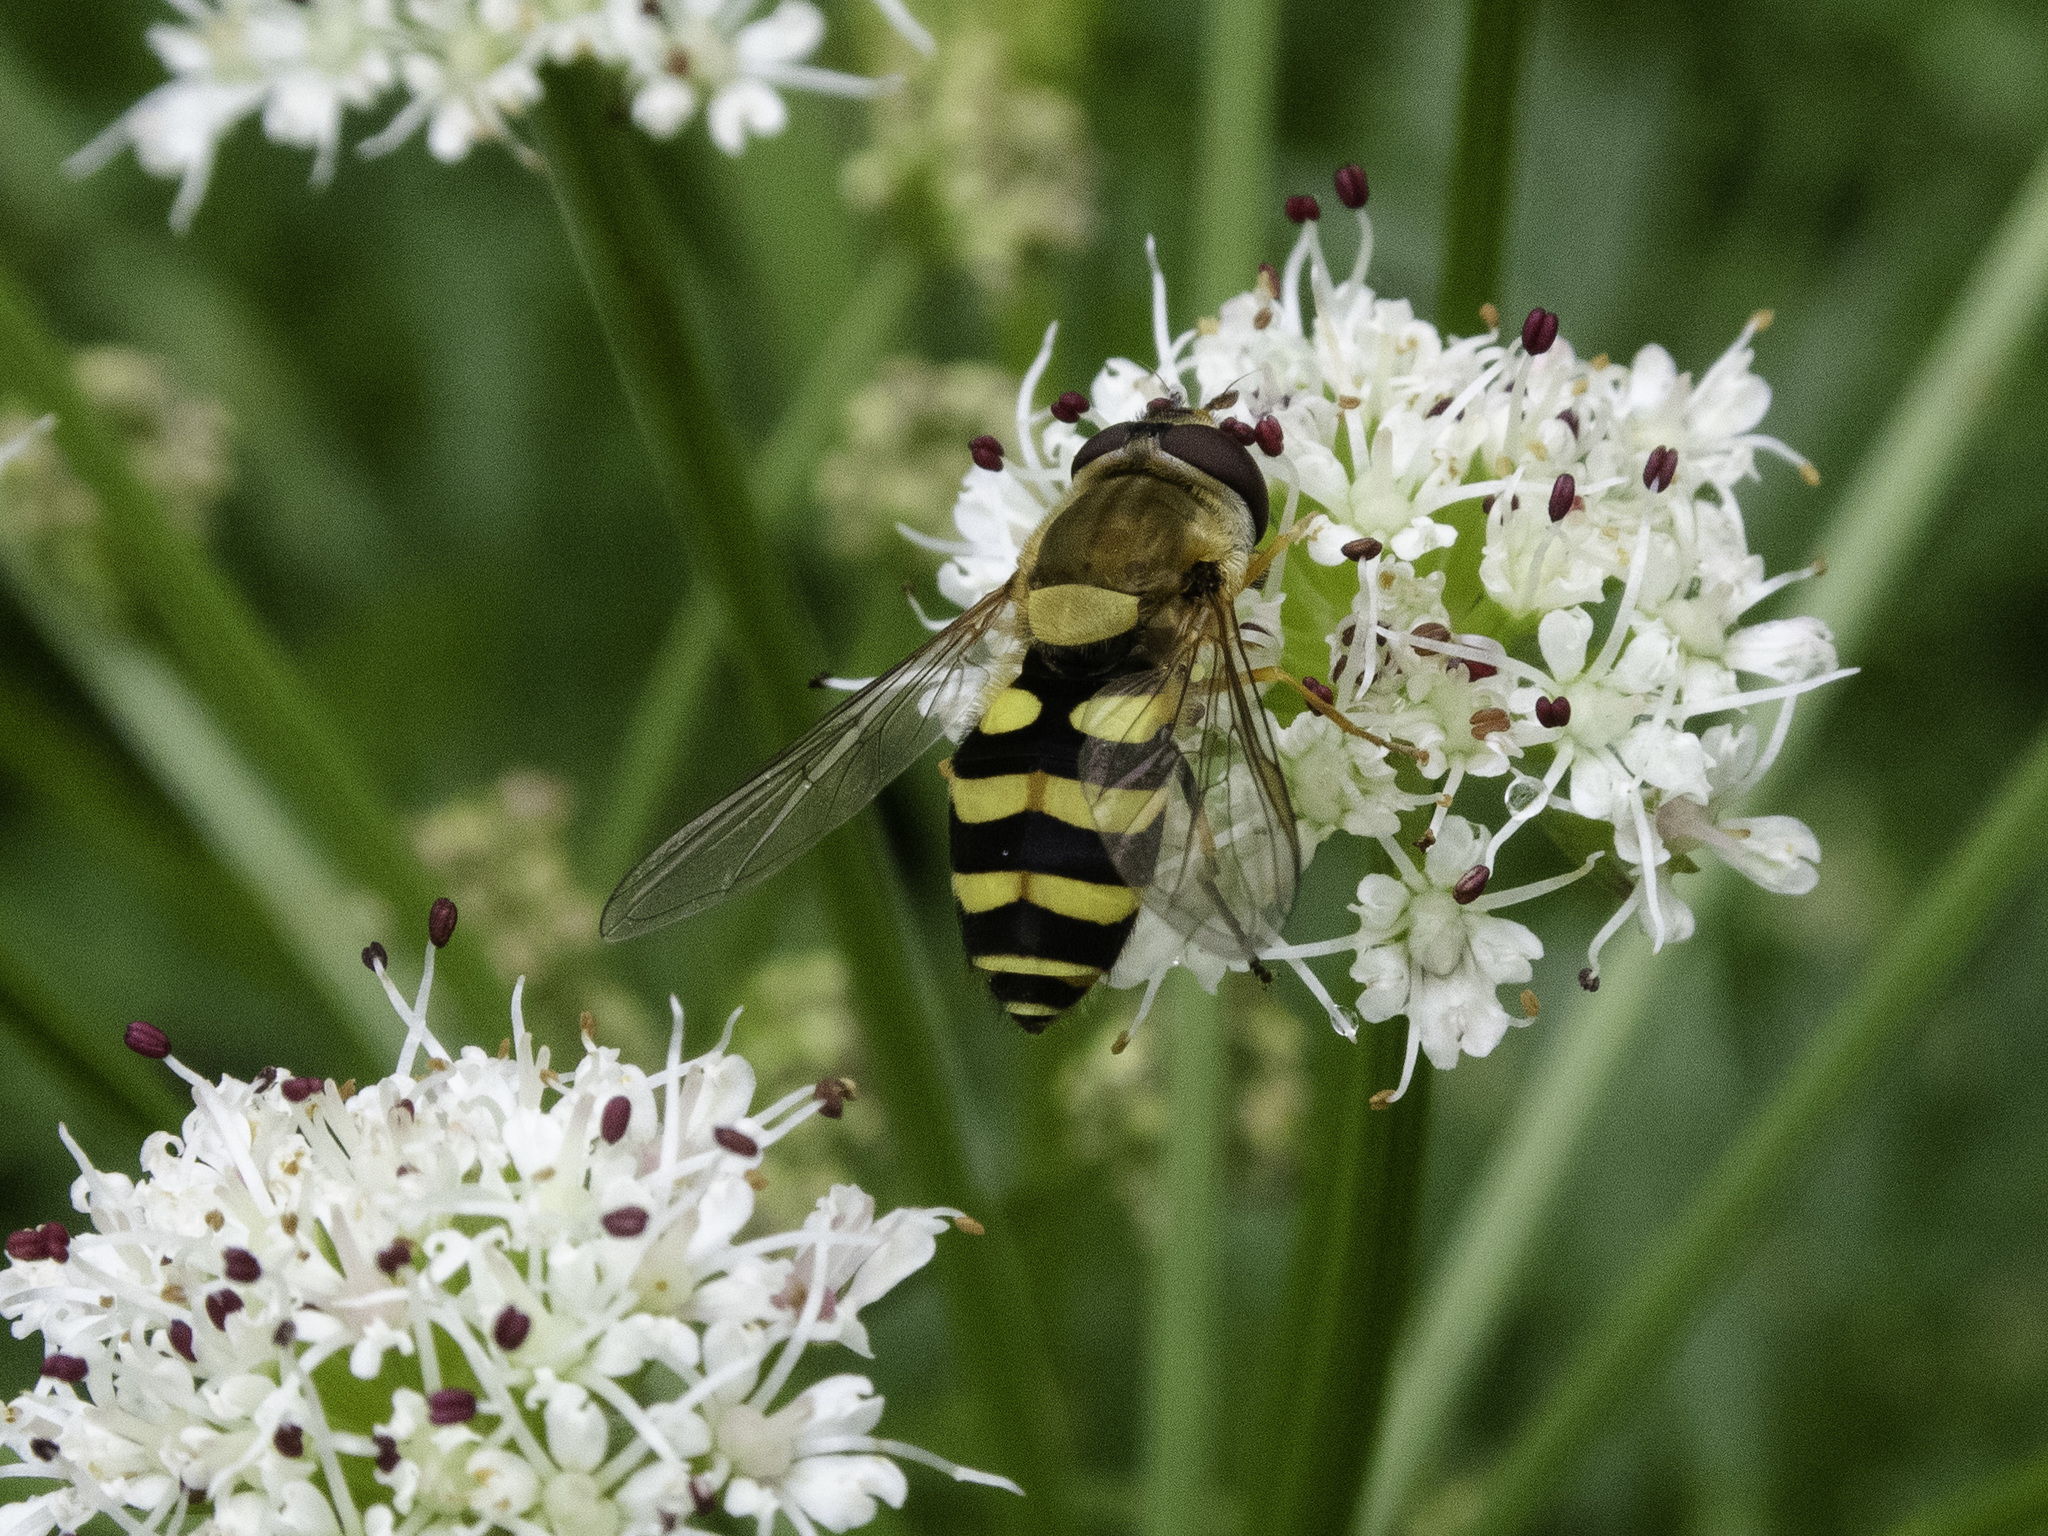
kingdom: Animalia
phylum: Arthropoda
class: Insecta
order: Diptera
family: Syrphidae
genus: Syrphus
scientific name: Syrphus
